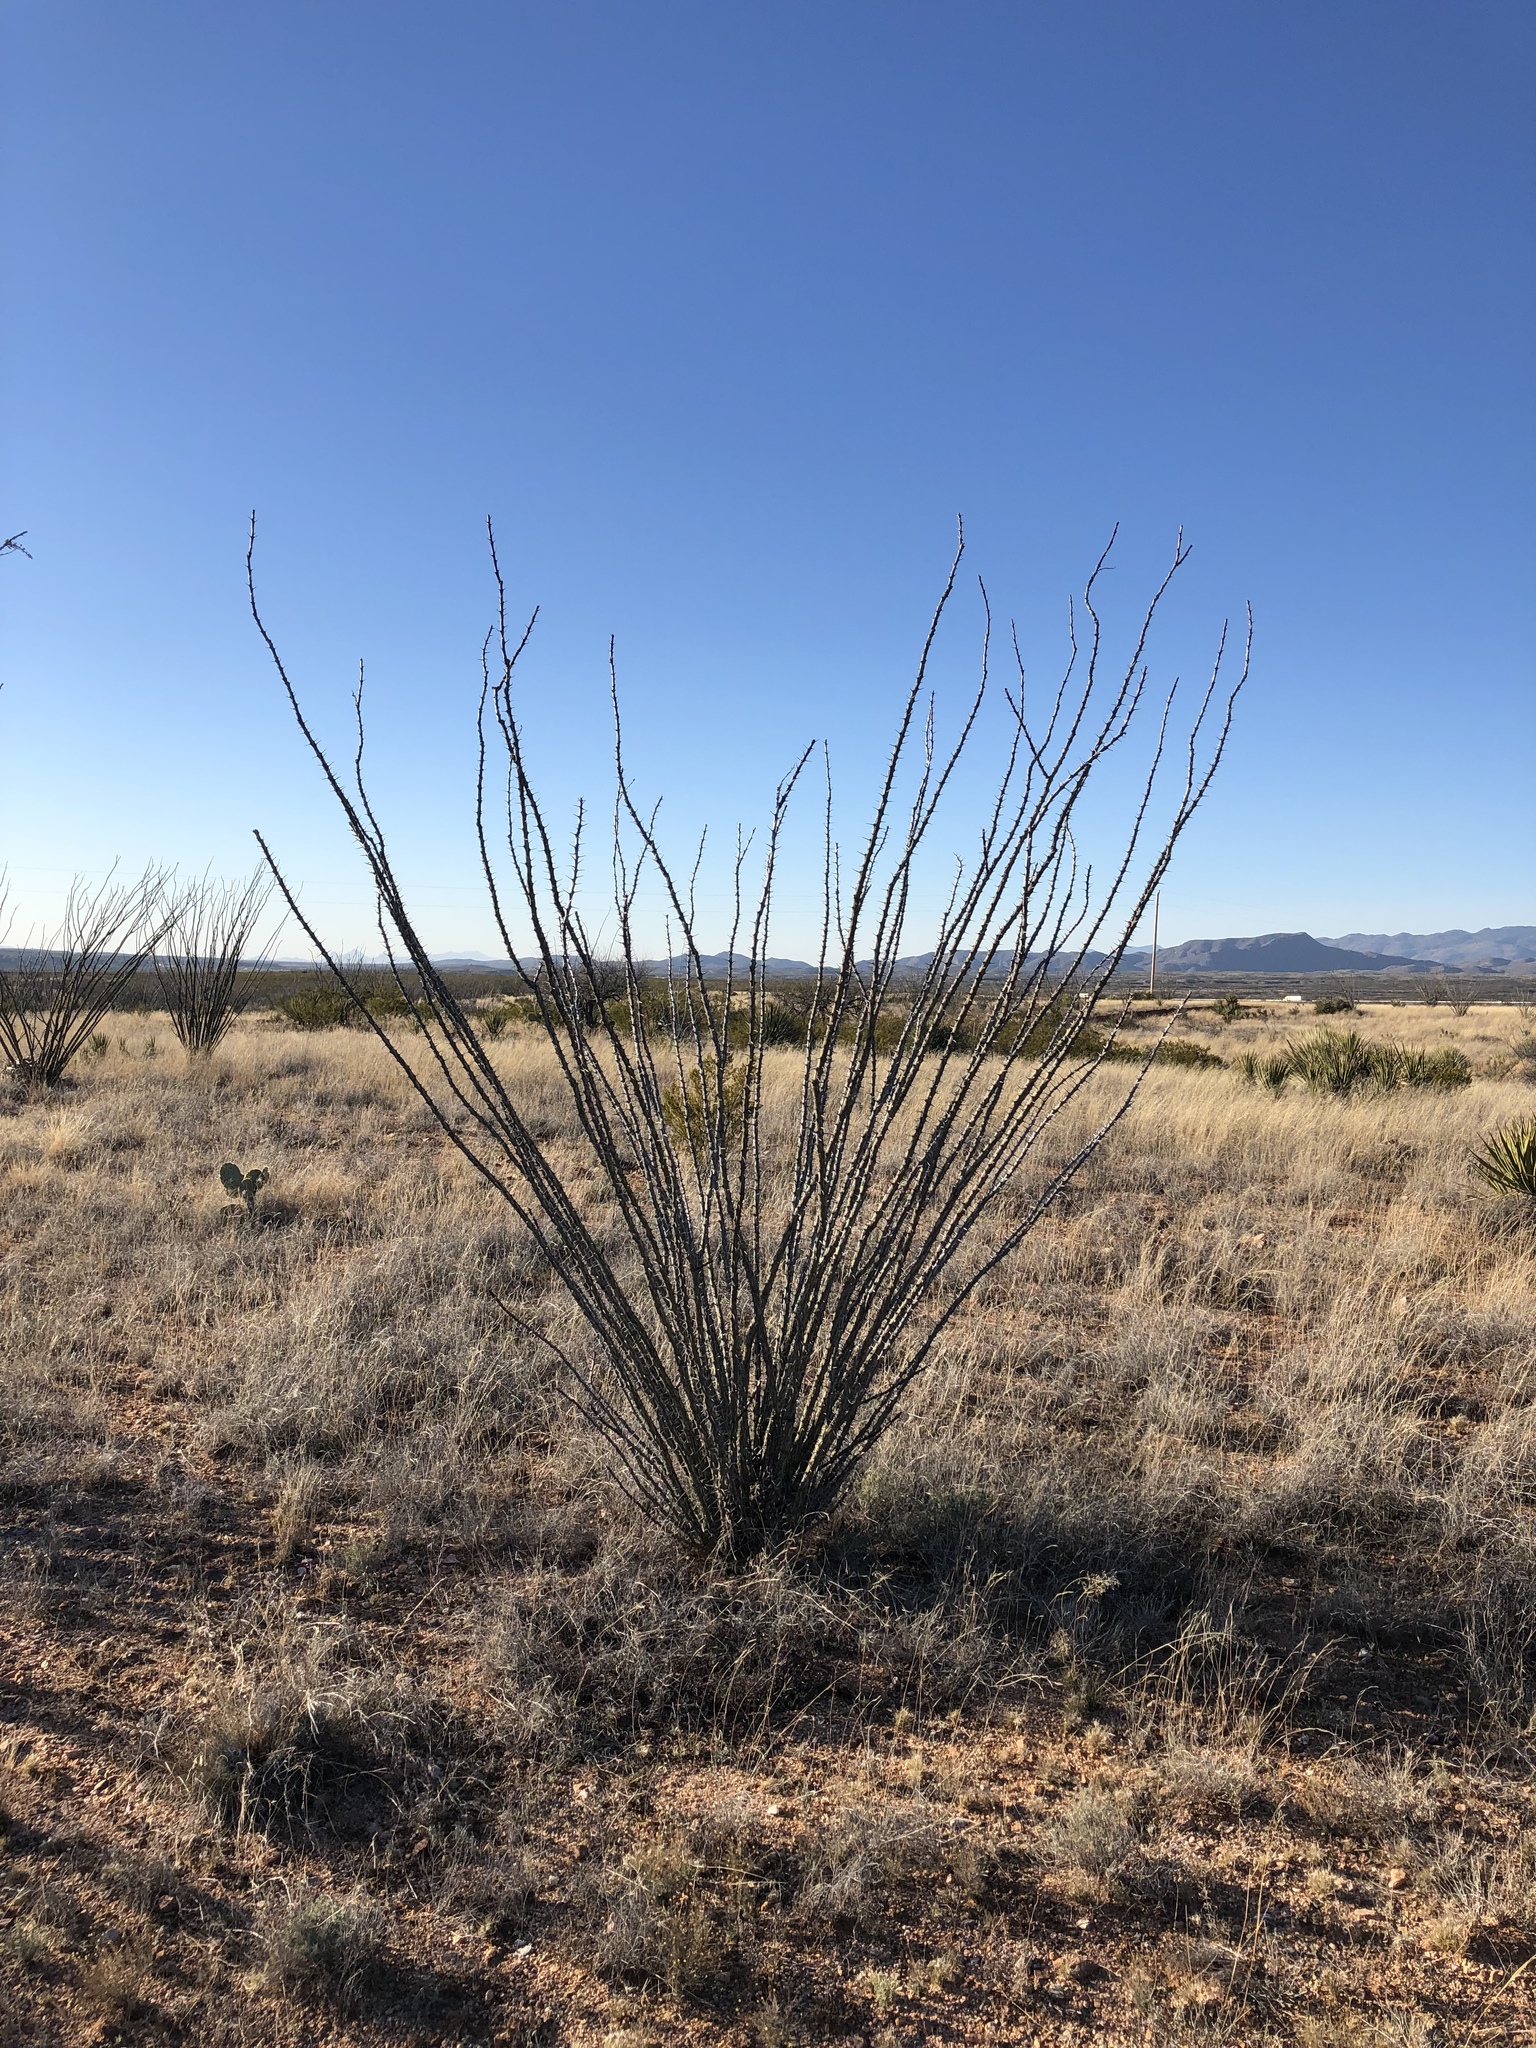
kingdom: Plantae
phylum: Tracheophyta
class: Magnoliopsida
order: Ericales
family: Fouquieriaceae
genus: Fouquieria
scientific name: Fouquieria splendens
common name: Vine-cactus
